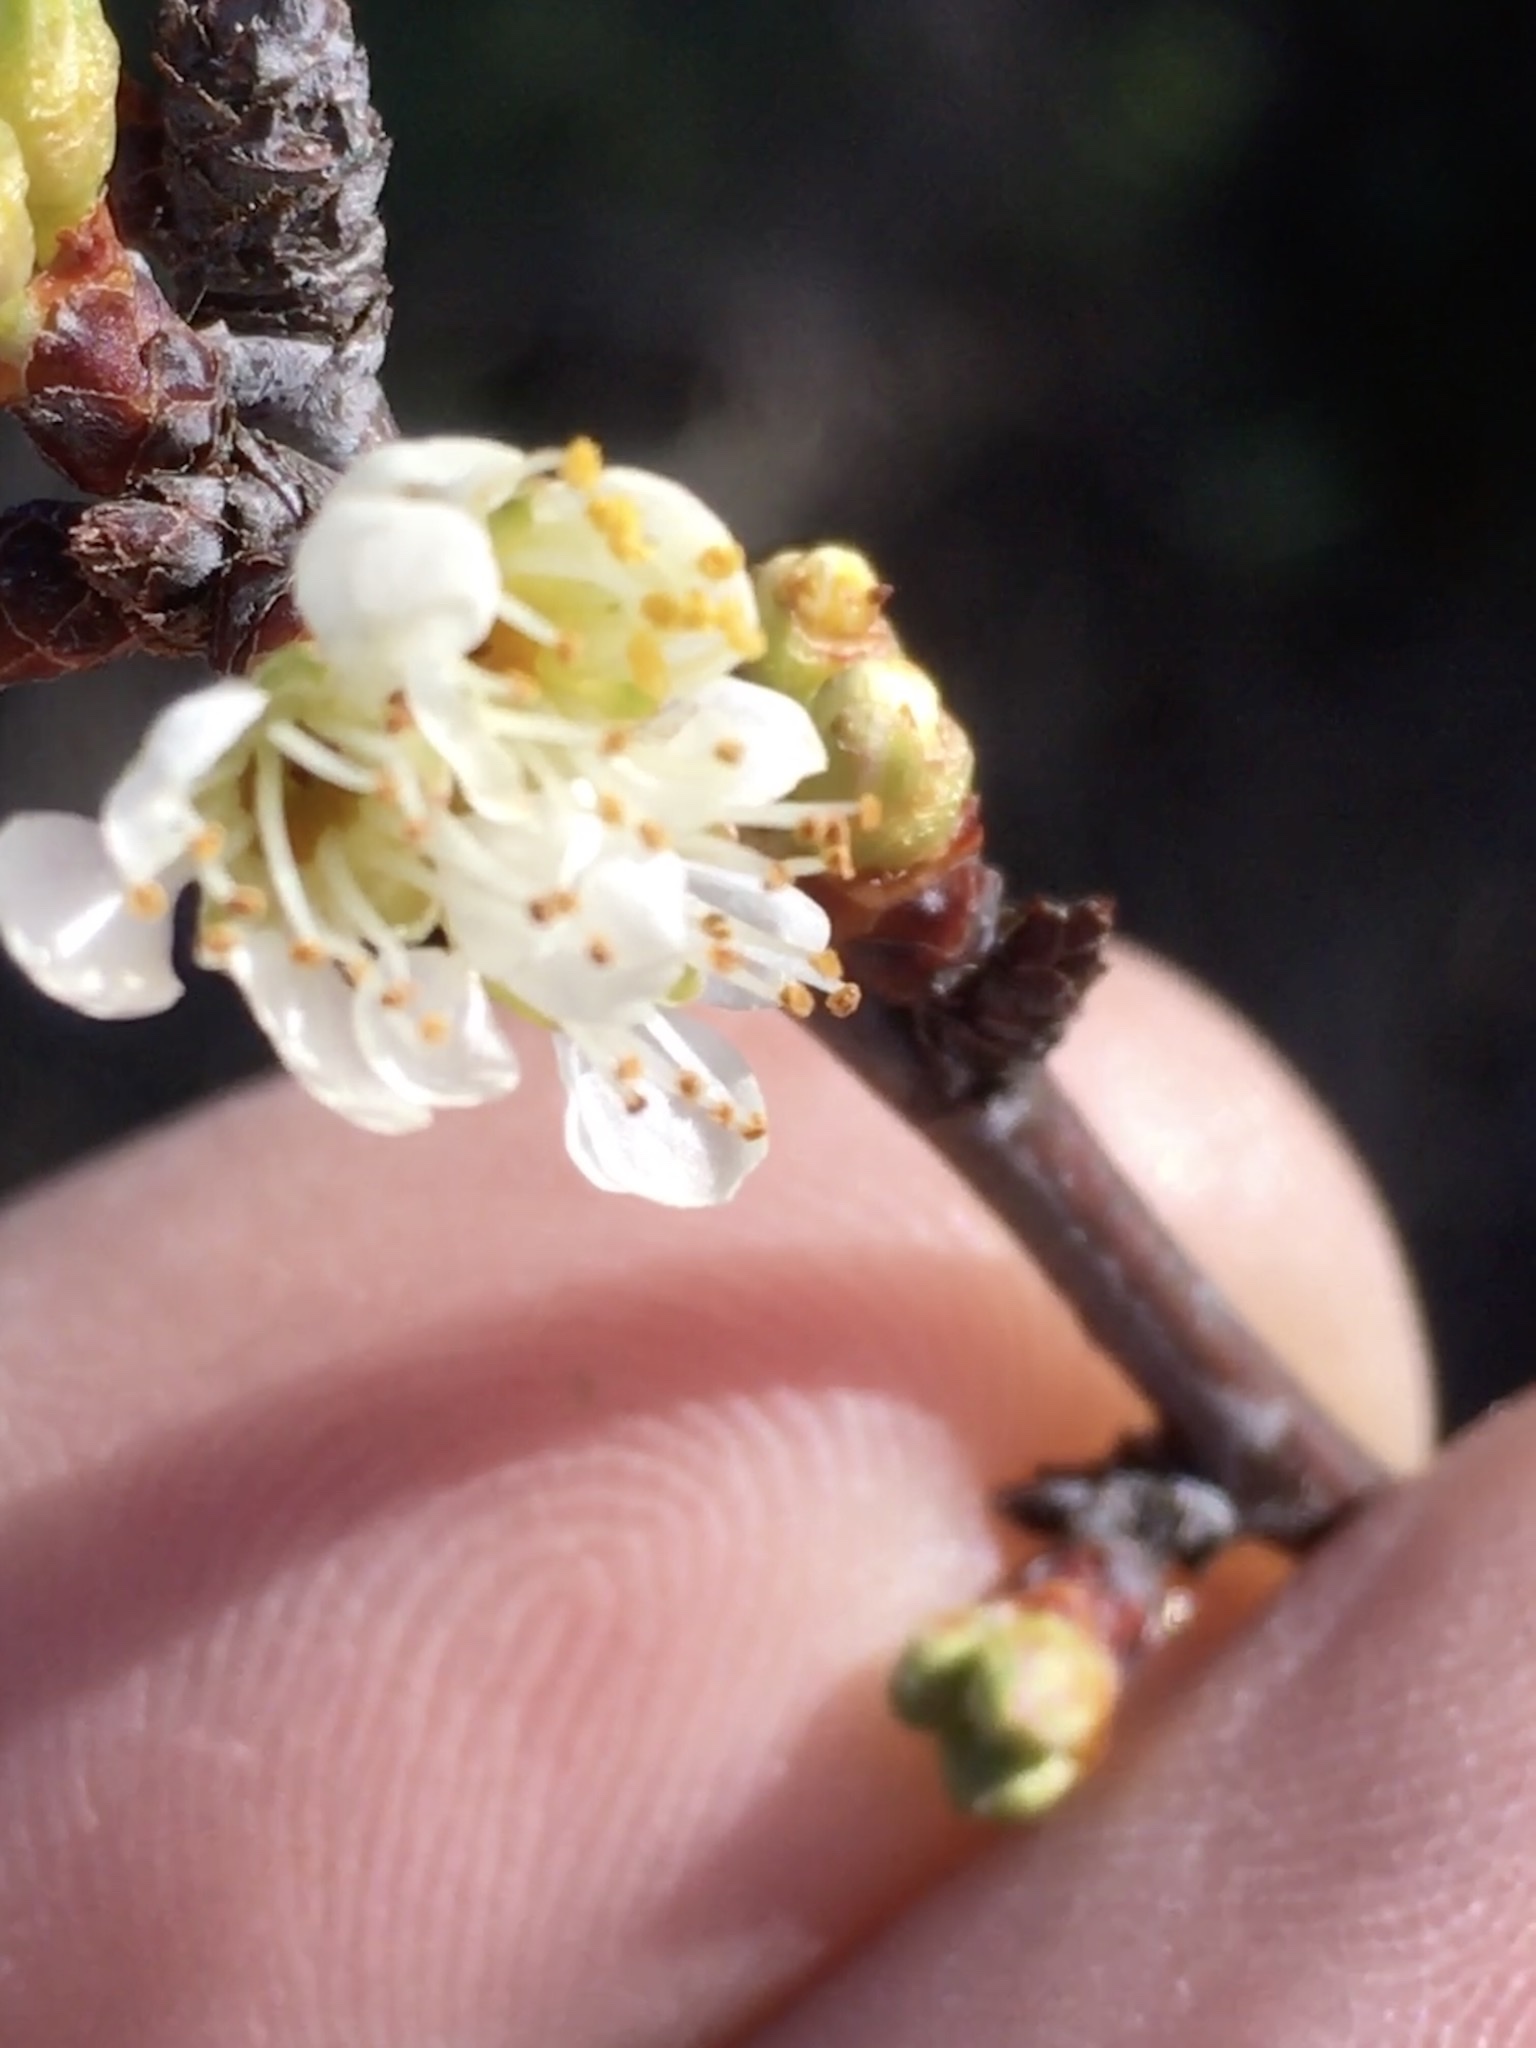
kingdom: Plantae
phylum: Tracheophyta
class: Magnoliopsida
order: Rosales
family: Rosaceae
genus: Prunus
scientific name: Prunus angustifolia
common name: Cherokee plum
